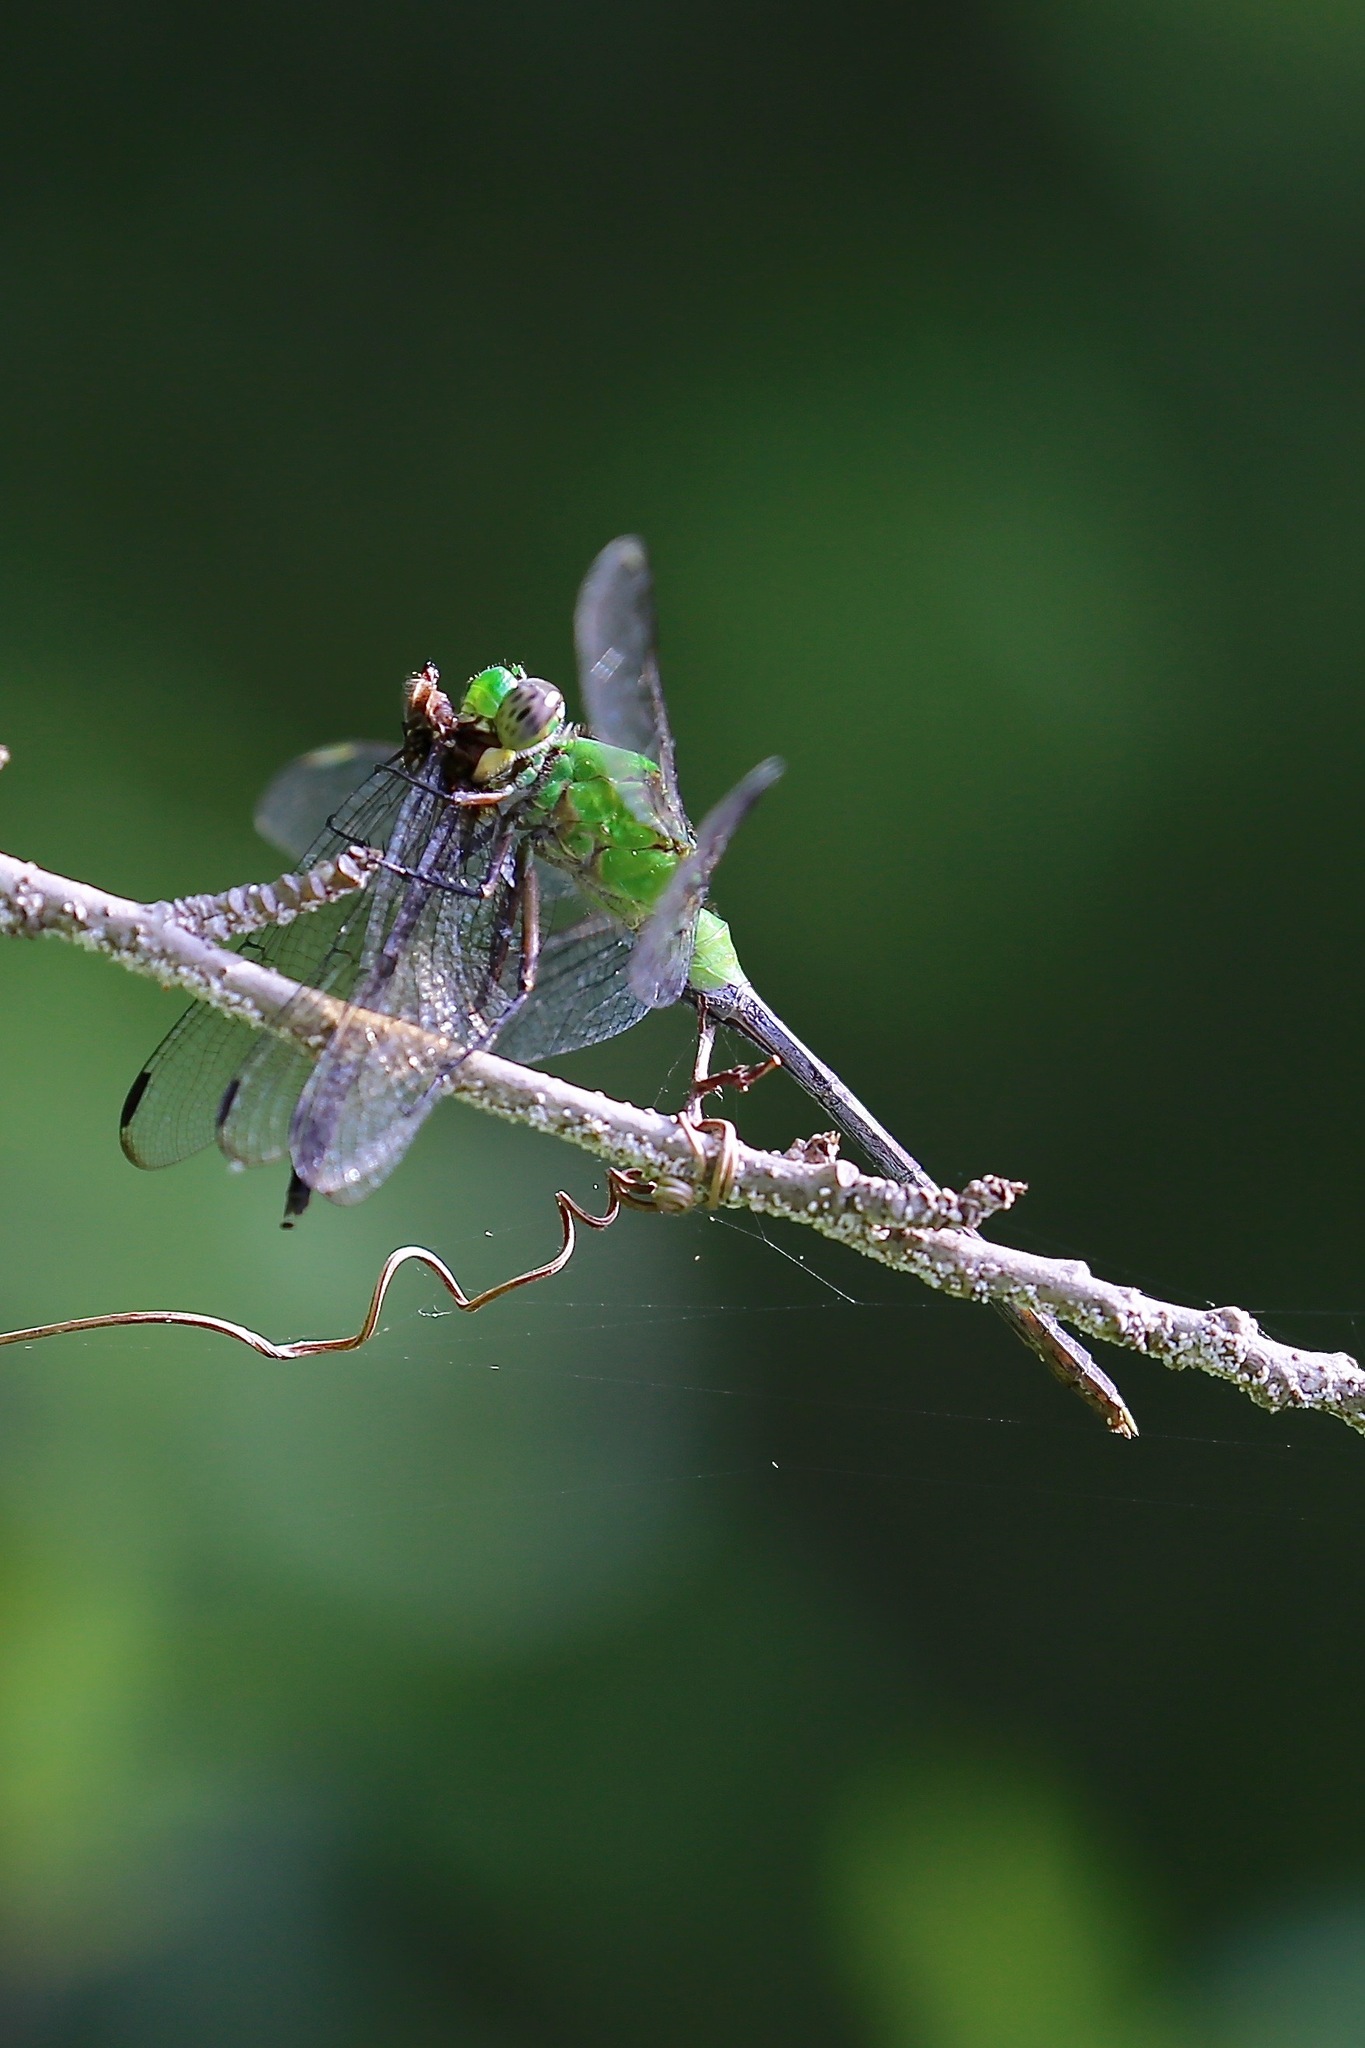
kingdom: Animalia
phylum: Arthropoda
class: Insecta
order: Odonata
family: Libellulidae
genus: Erythemis
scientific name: Erythemis vesiculosa
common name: Great pondhawk
